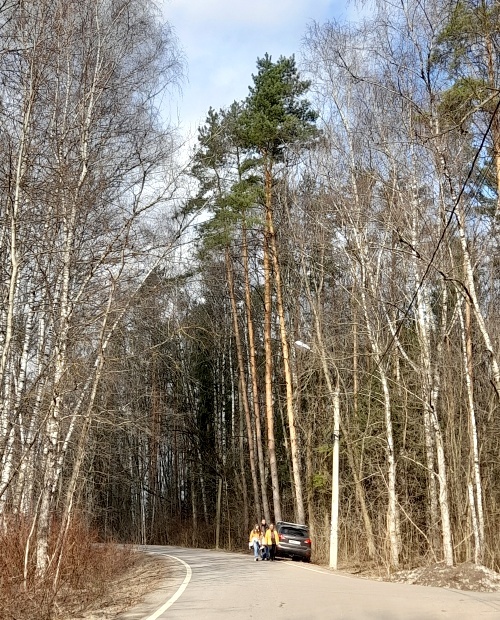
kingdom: Plantae
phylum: Tracheophyta
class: Pinopsida
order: Pinales
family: Pinaceae
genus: Pinus
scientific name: Pinus sylvestris
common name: Scots pine
